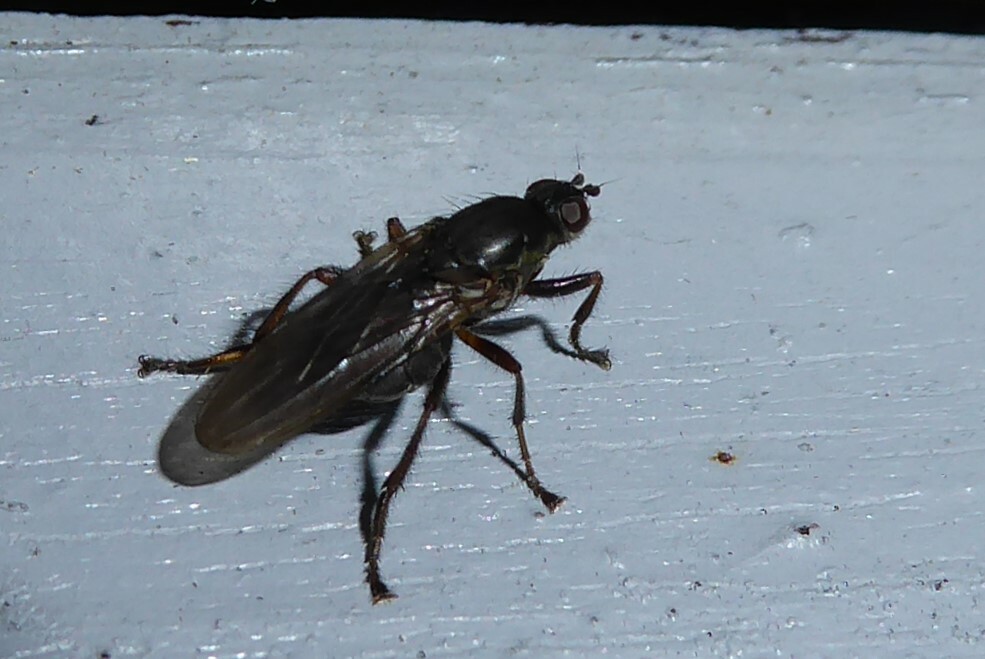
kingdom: Animalia
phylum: Arthropoda
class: Insecta
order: Diptera
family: Coelopidae
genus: Chaetocoelopa
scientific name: Chaetocoelopa littoralis
